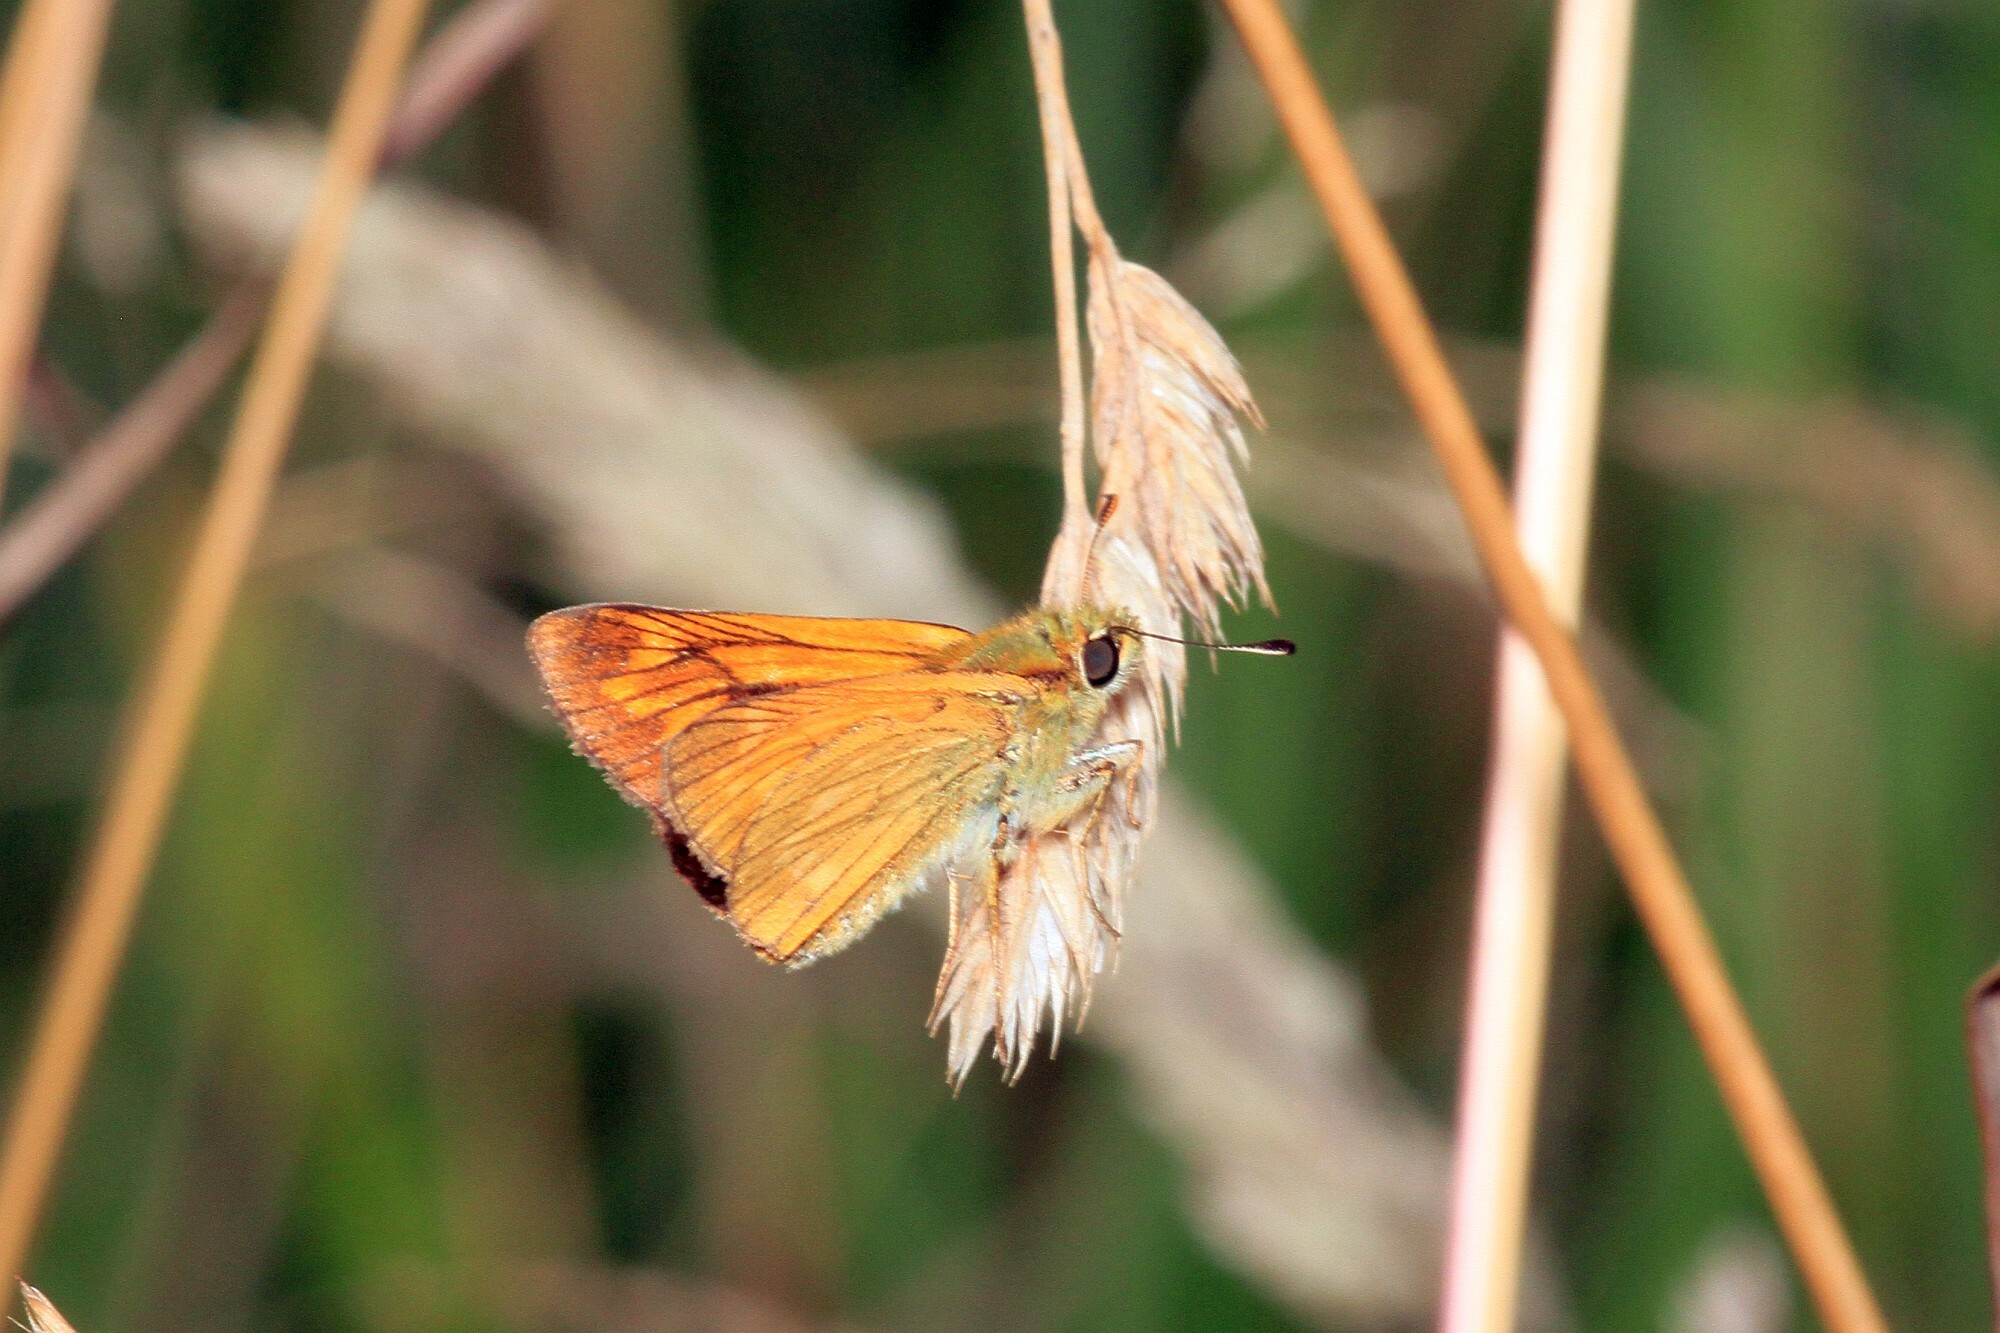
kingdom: Animalia
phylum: Arthropoda
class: Insecta
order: Lepidoptera
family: Hesperiidae
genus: Ochlodes
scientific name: Ochlodes venata
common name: Large skipper
